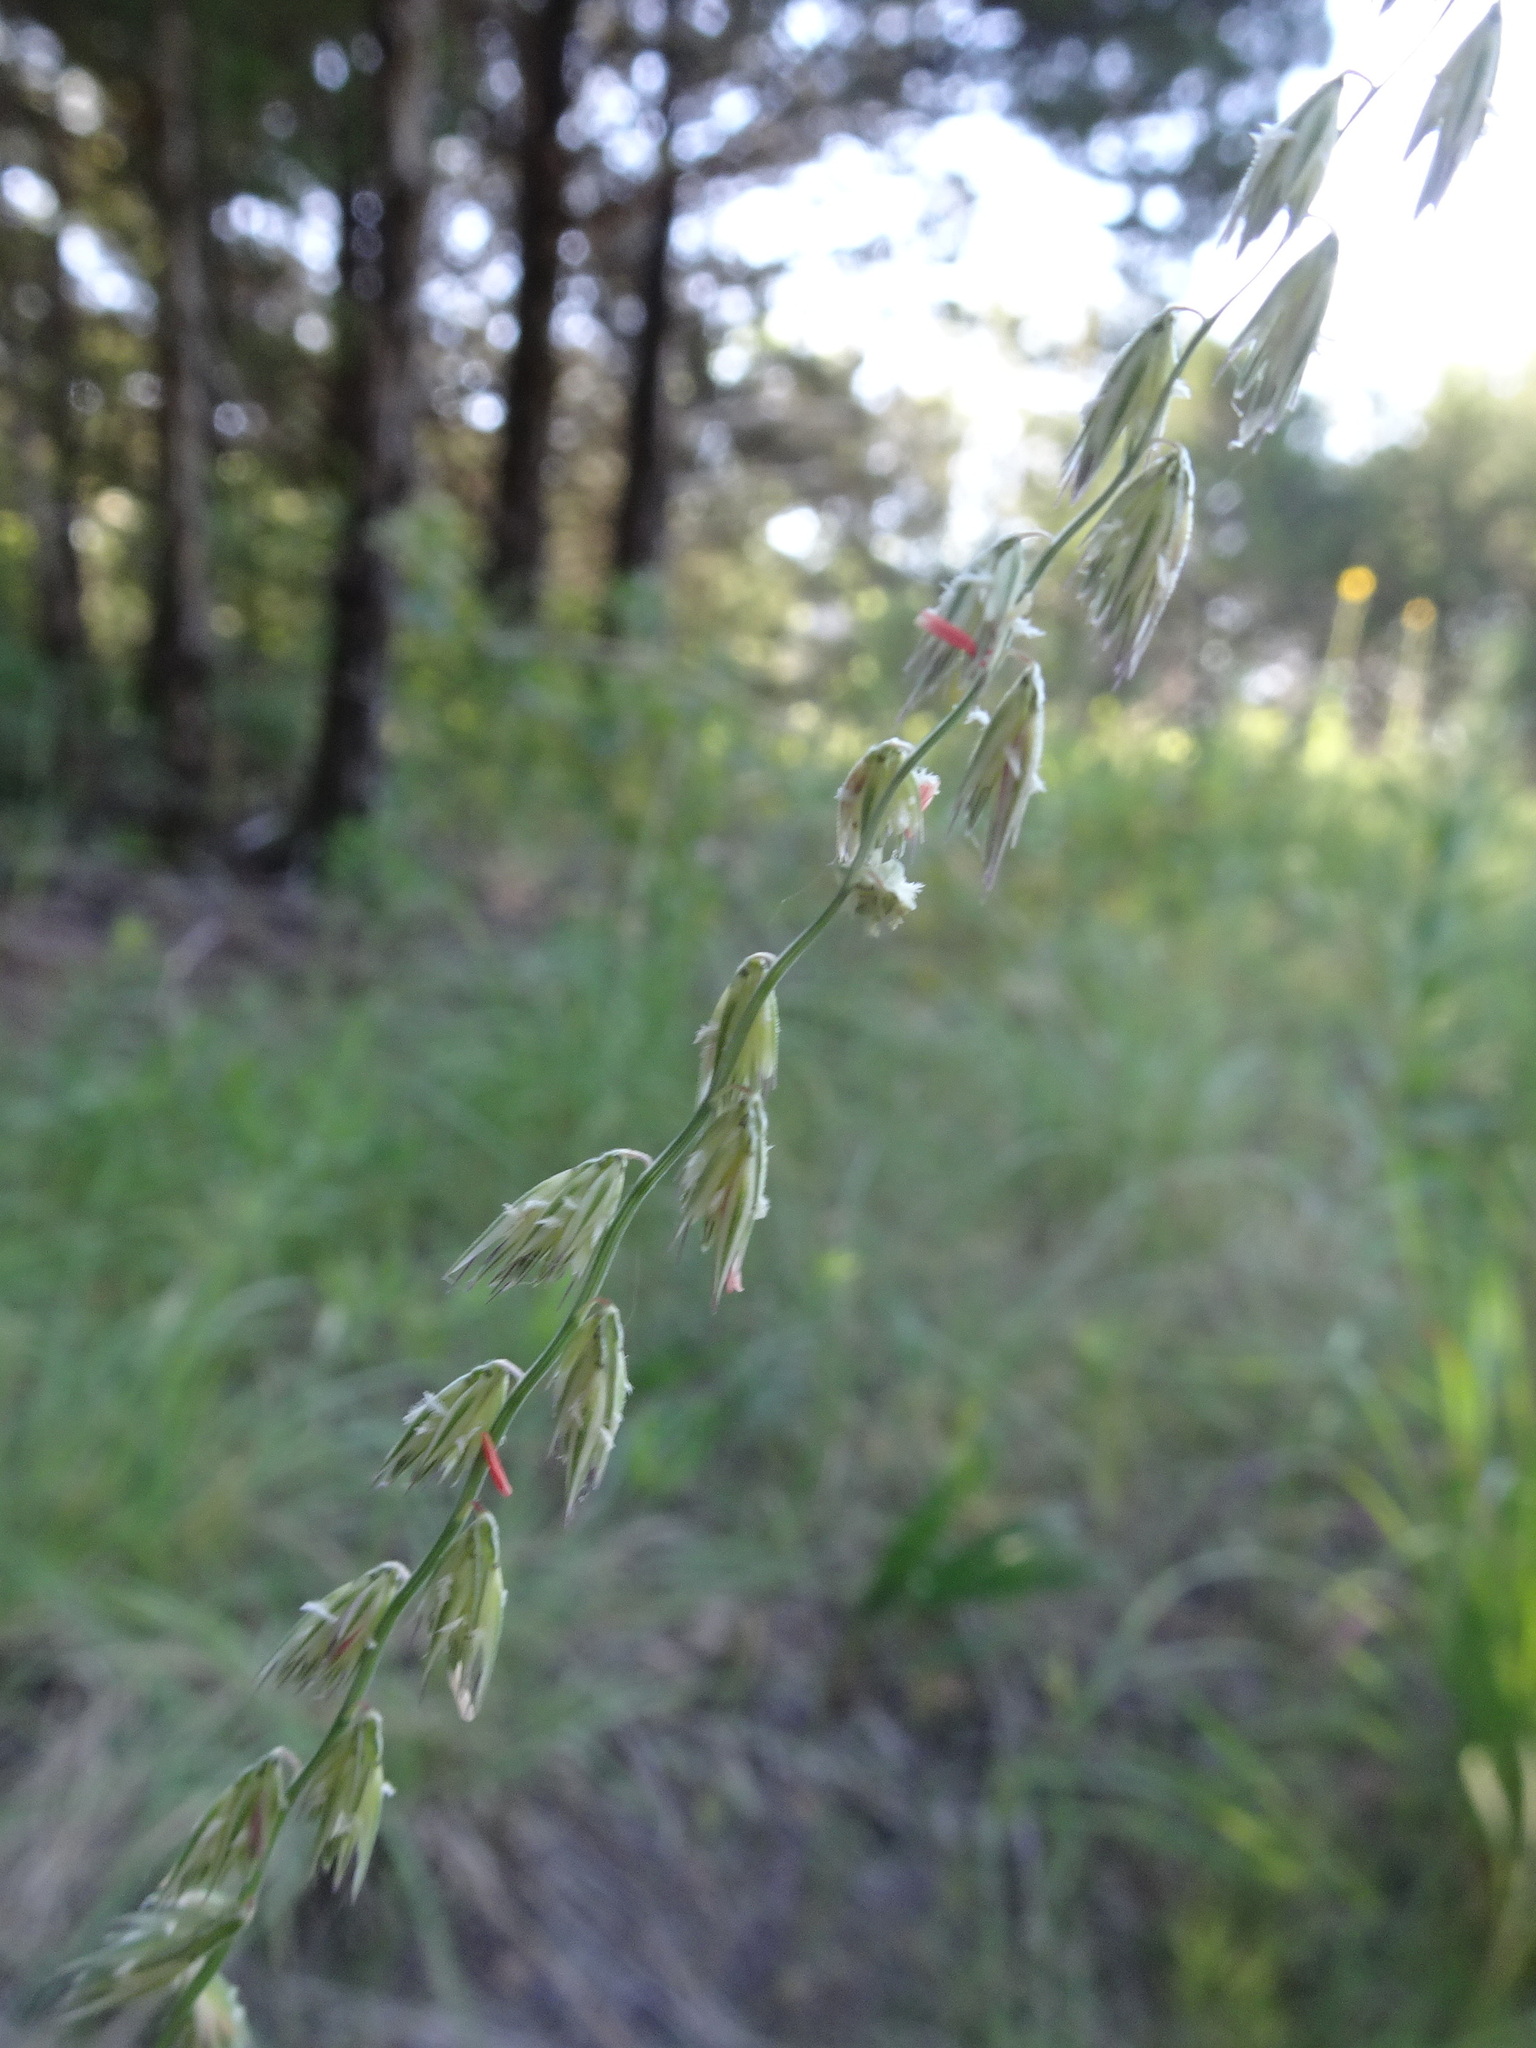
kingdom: Plantae
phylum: Tracheophyta
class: Liliopsida
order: Poales
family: Poaceae
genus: Bouteloua
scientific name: Bouteloua curtipendula
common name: Side-oats grama
